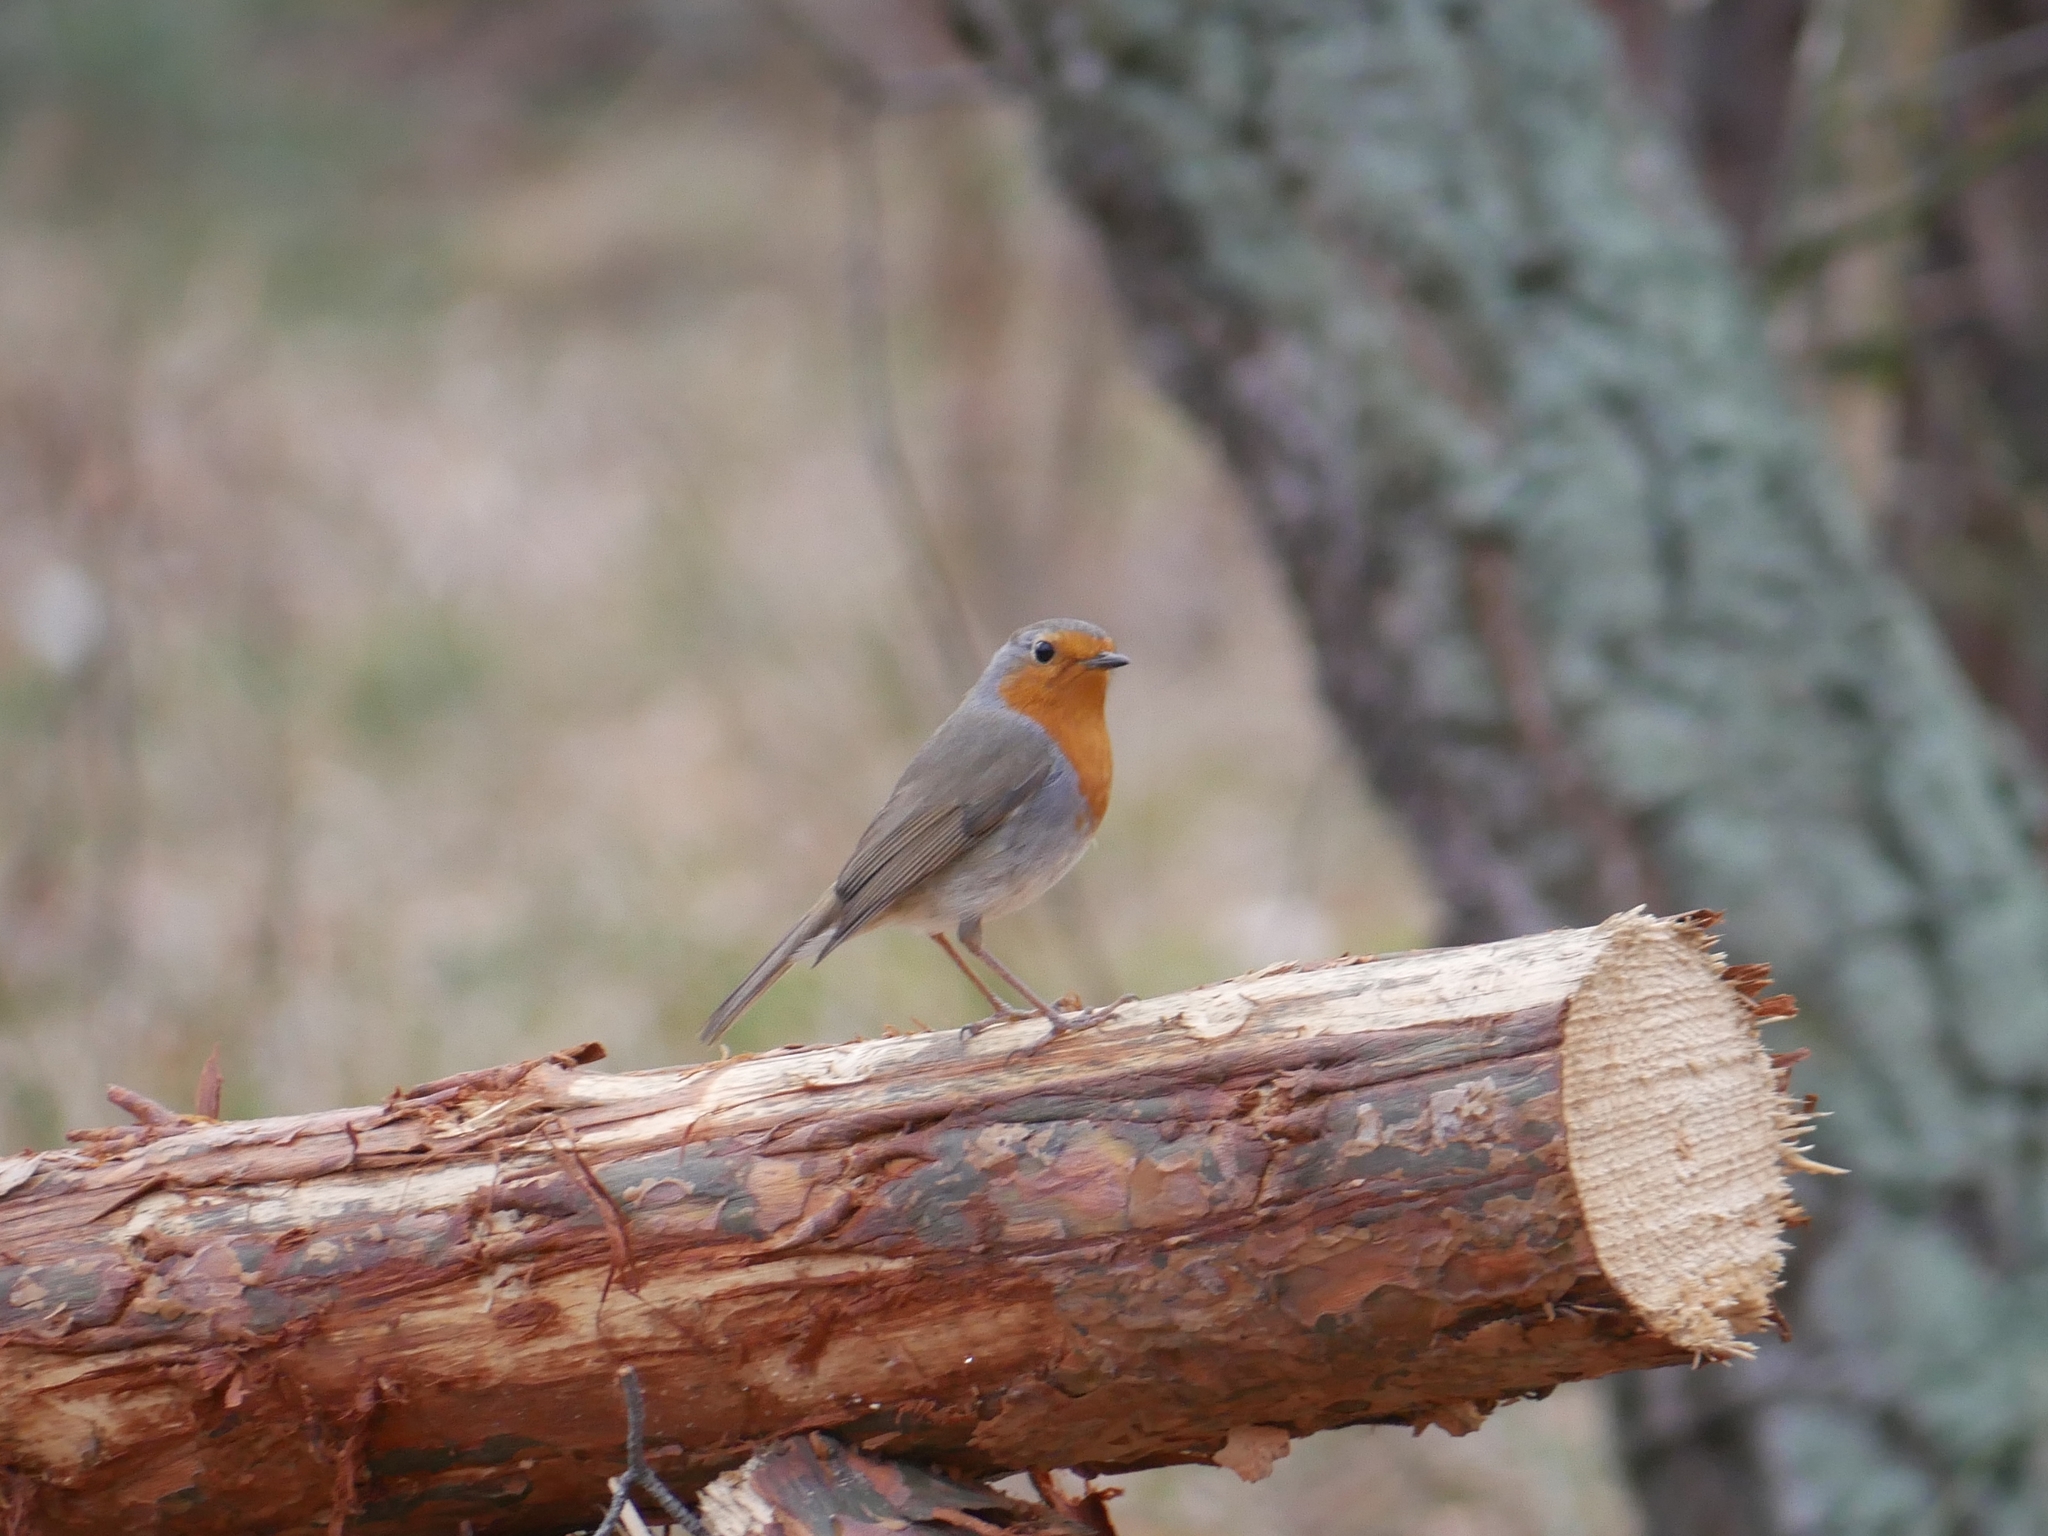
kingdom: Animalia
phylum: Chordata
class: Aves
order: Passeriformes
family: Muscicapidae
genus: Erithacus
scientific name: Erithacus rubecula
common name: European robin
